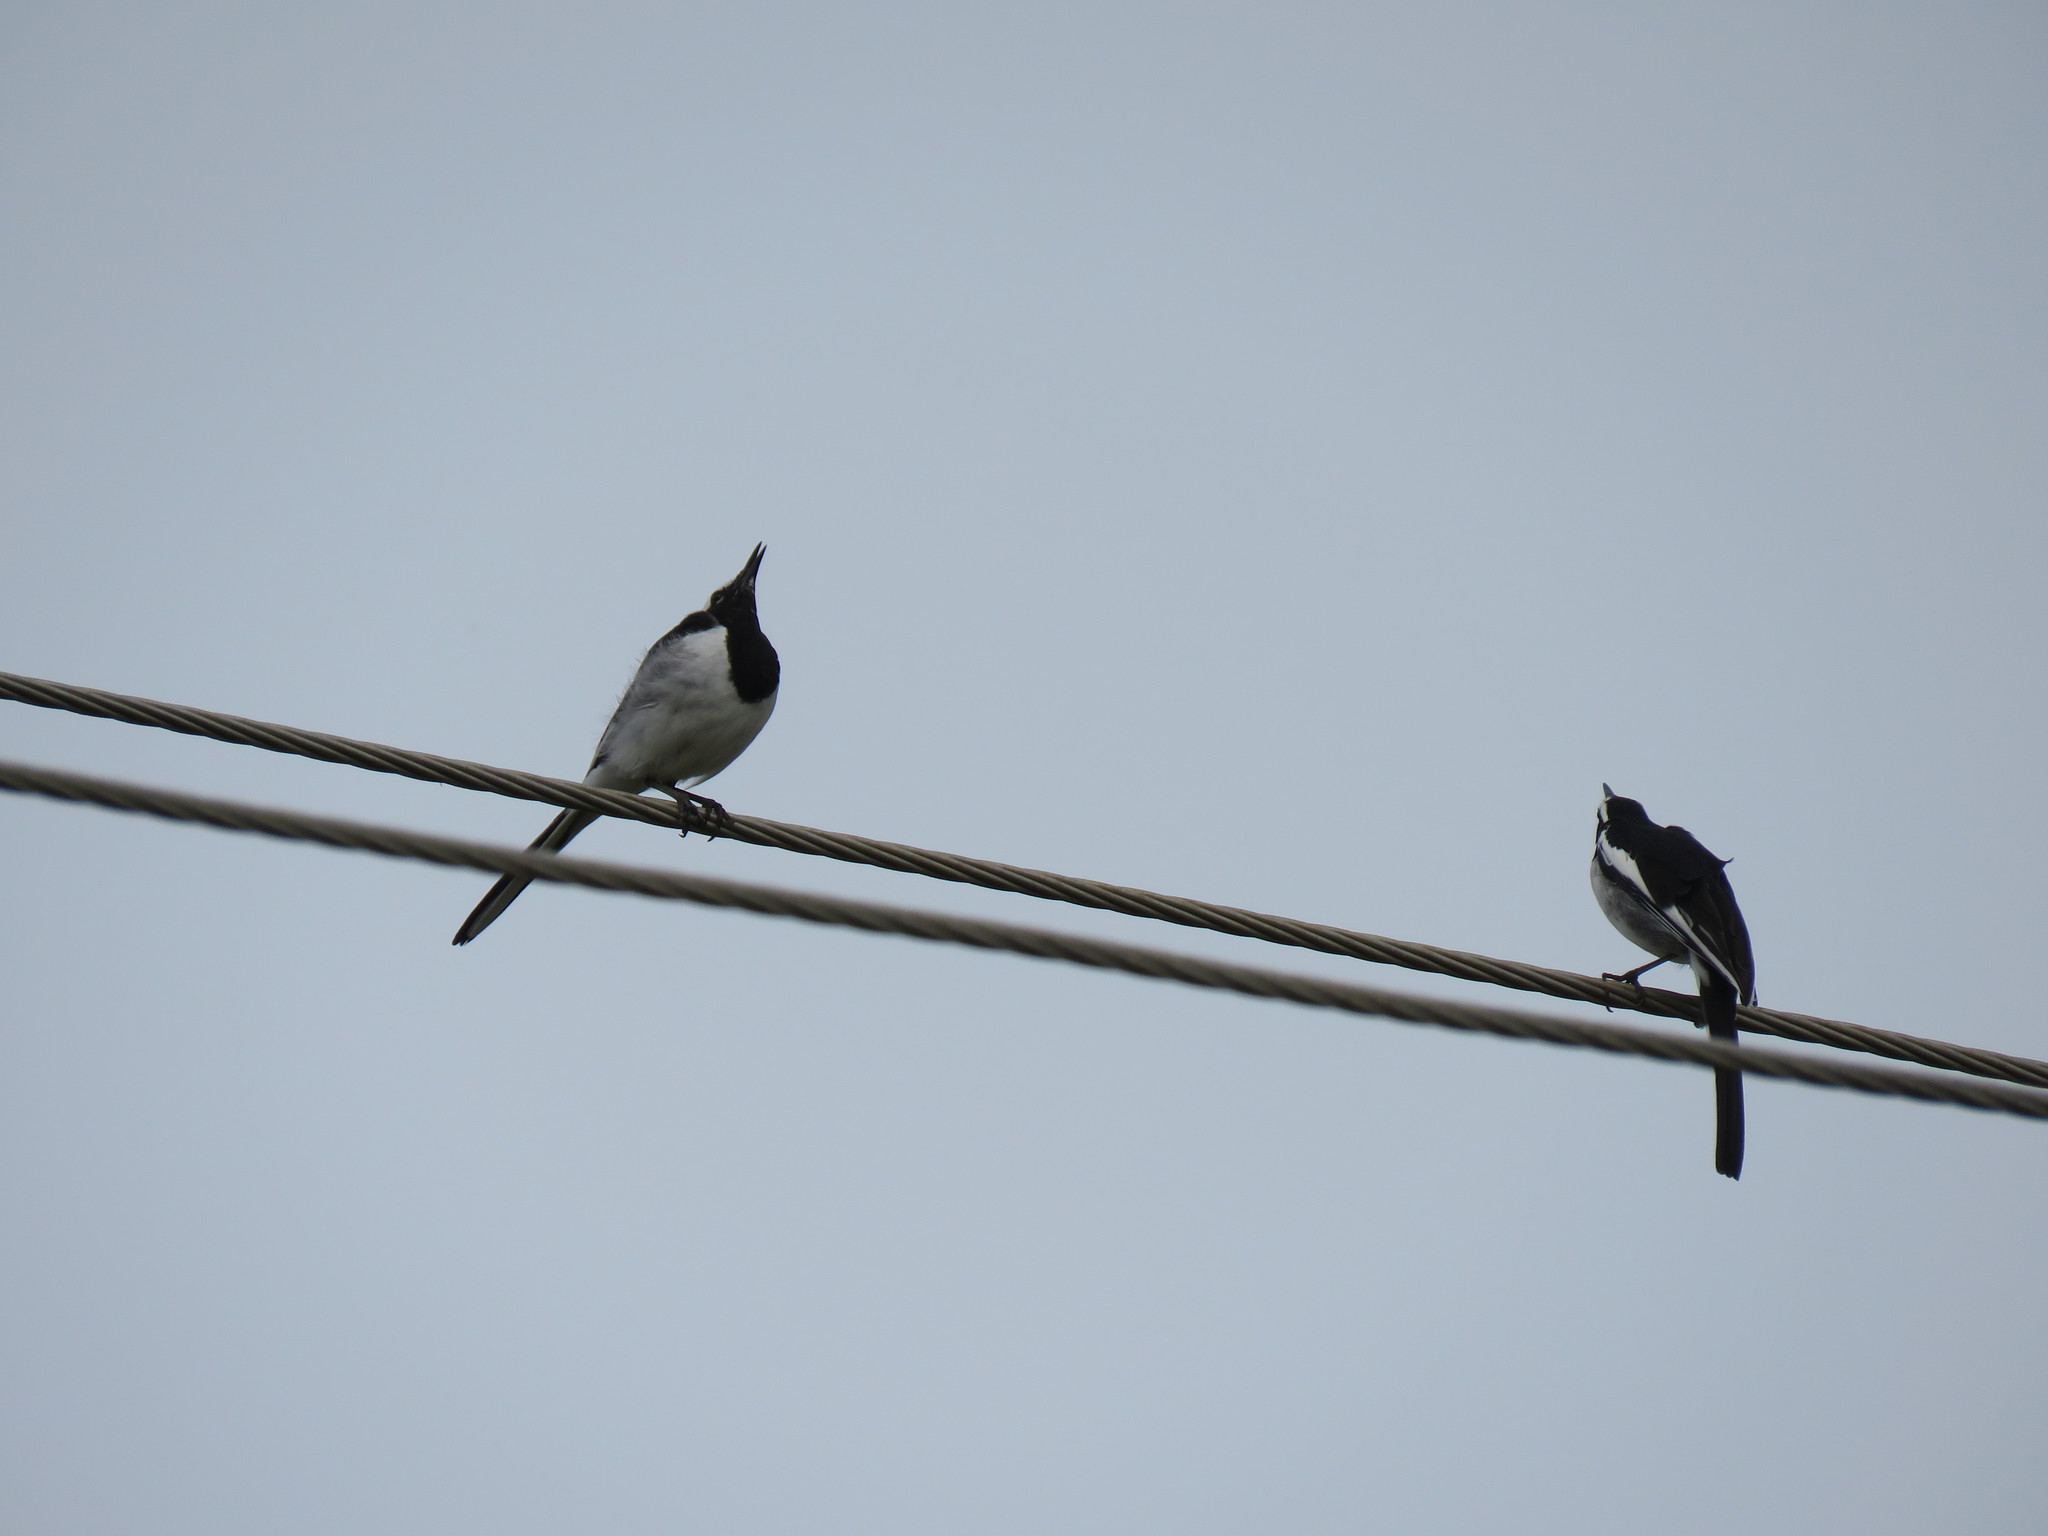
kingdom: Animalia
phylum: Chordata
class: Aves
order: Passeriformes
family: Motacillidae
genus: Motacilla
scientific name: Motacilla maderaspatensis
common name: White-browed wagtail
